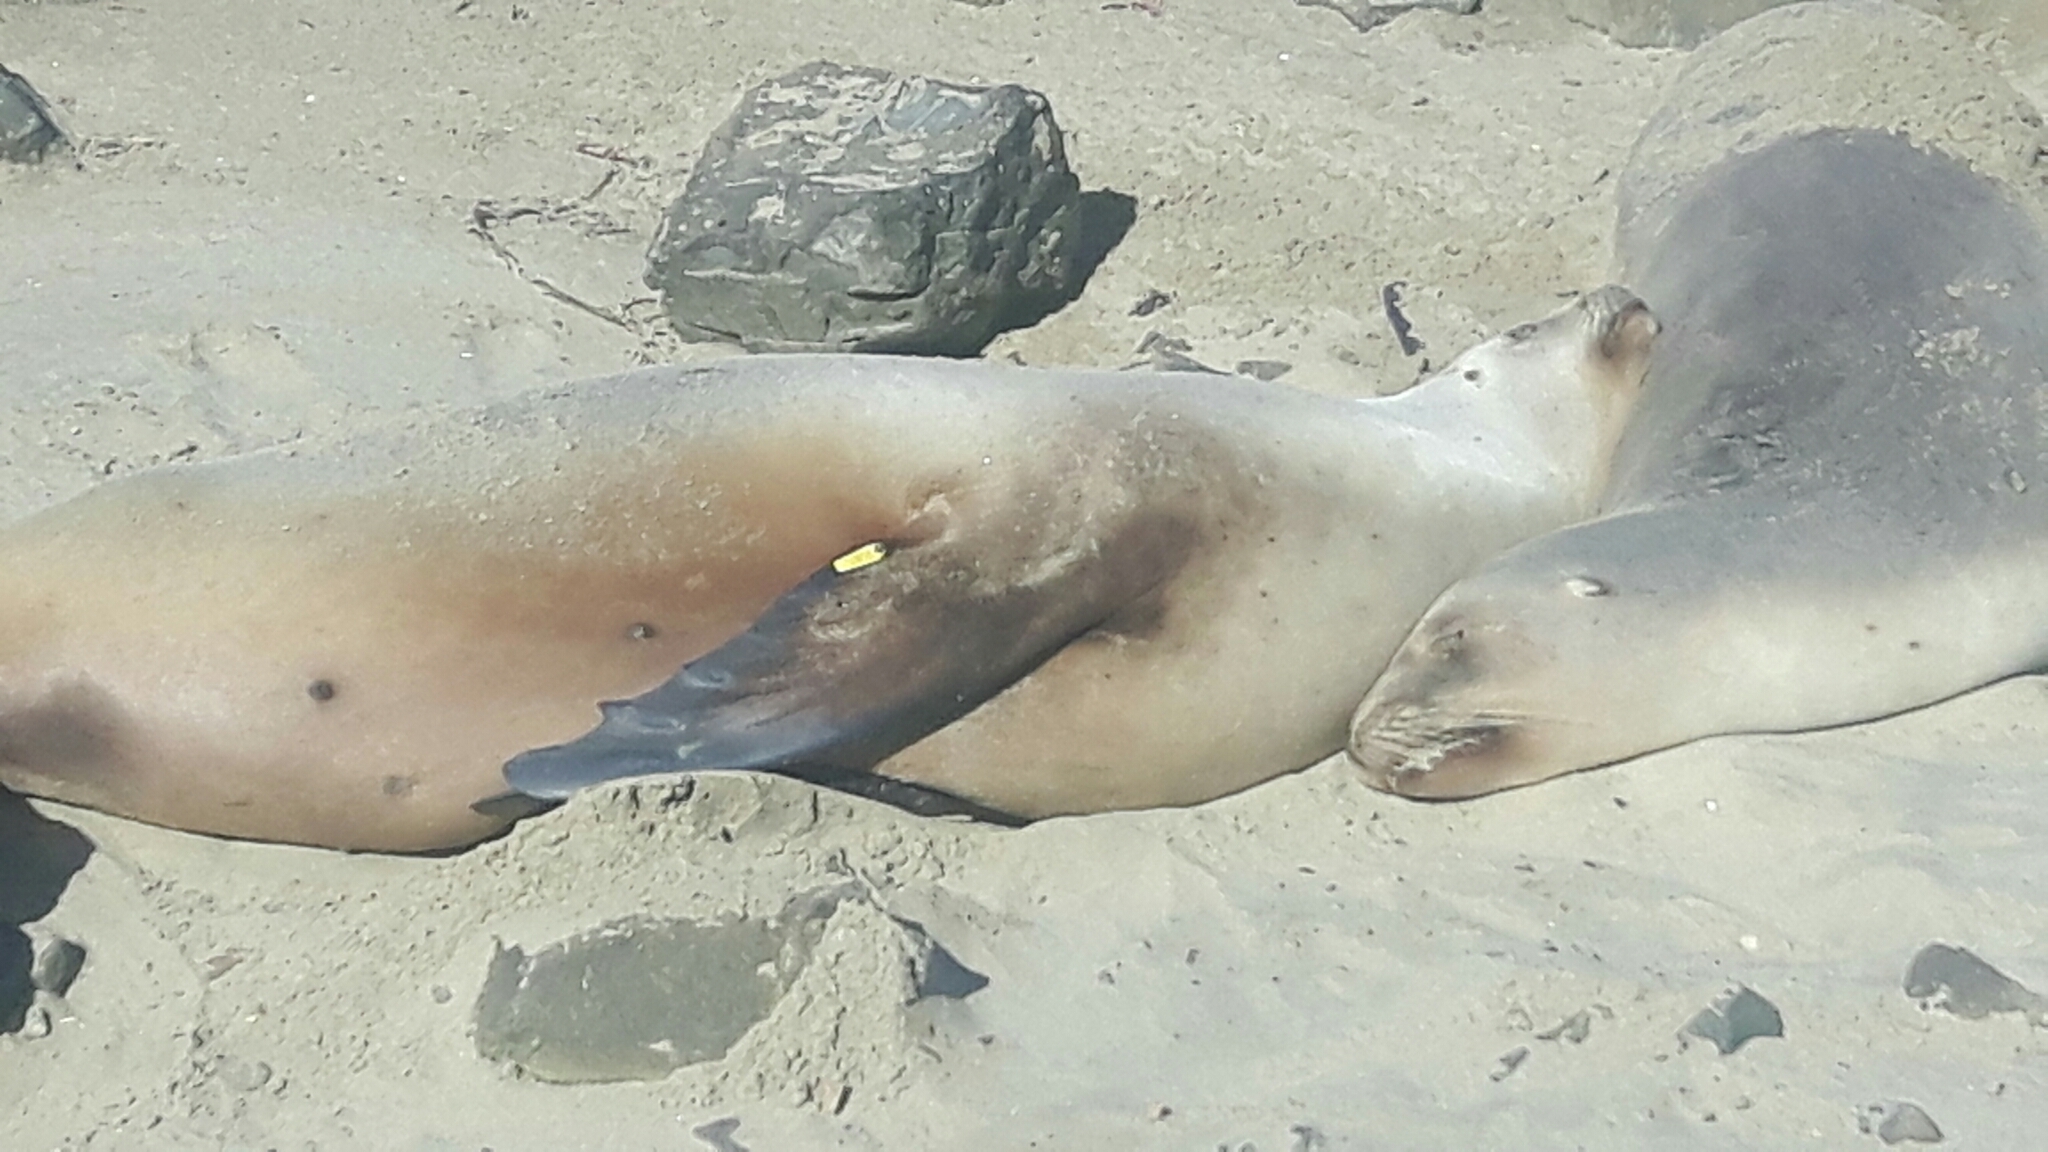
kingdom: Animalia
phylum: Chordata
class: Mammalia
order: Carnivora
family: Otariidae
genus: Phocarctos
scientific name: Phocarctos hookeri
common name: New zealand sea lion
